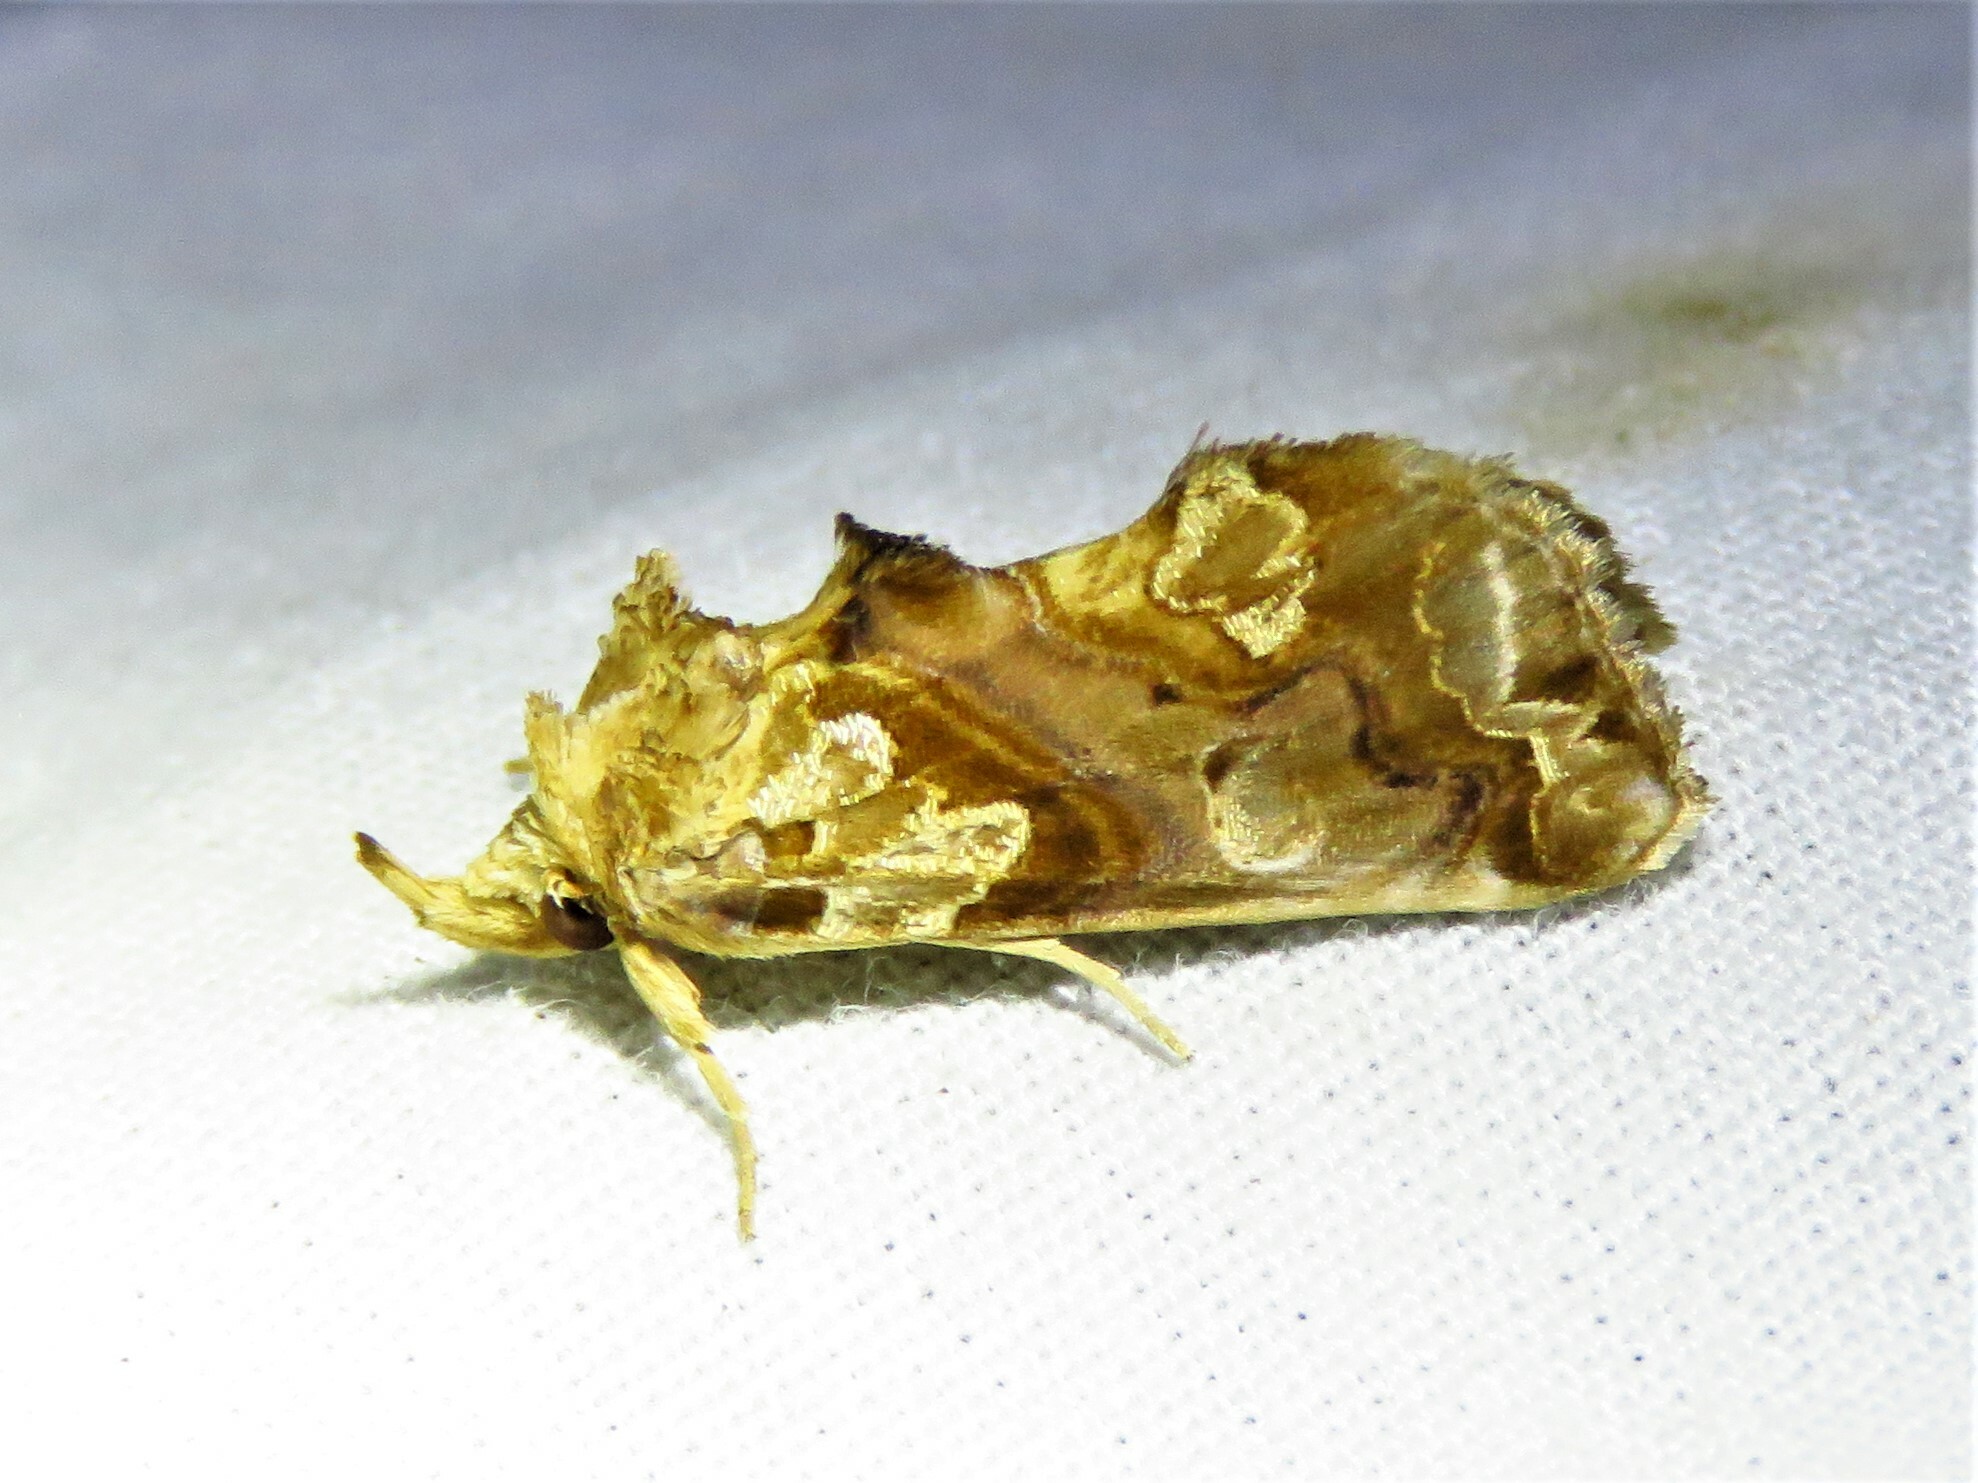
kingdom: Animalia
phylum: Arthropoda
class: Insecta
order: Lepidoptera
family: Erebidae
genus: Plusiodonta
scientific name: Plusiodonta compressipalpis
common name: Moonseed moth
